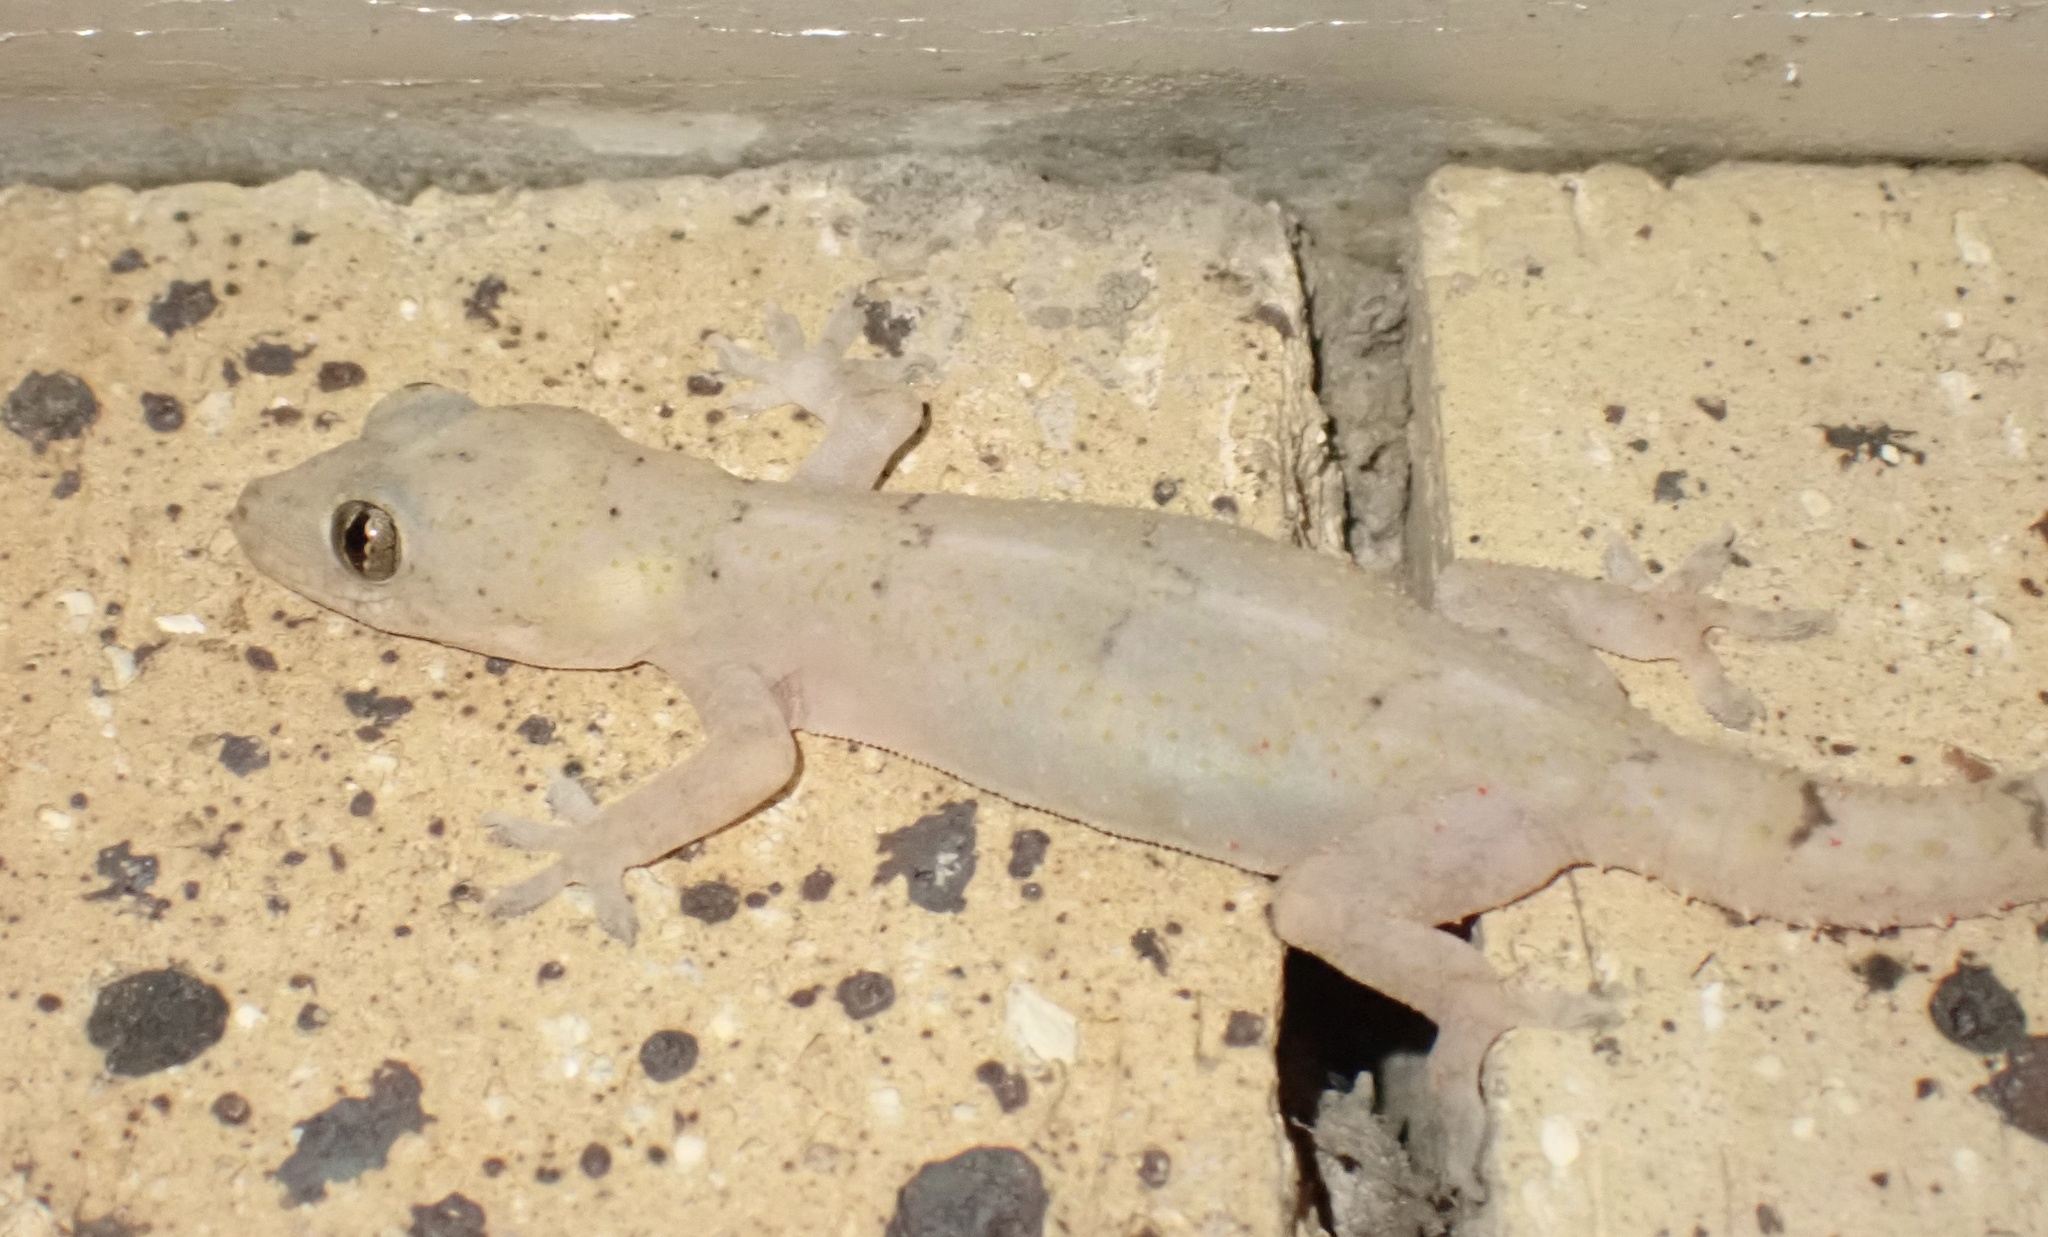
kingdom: Animalia
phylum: Chordata
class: Squamata
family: Gekkonidae
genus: Hemidactylus
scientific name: Hemidactylus mabouia
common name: House gecko
